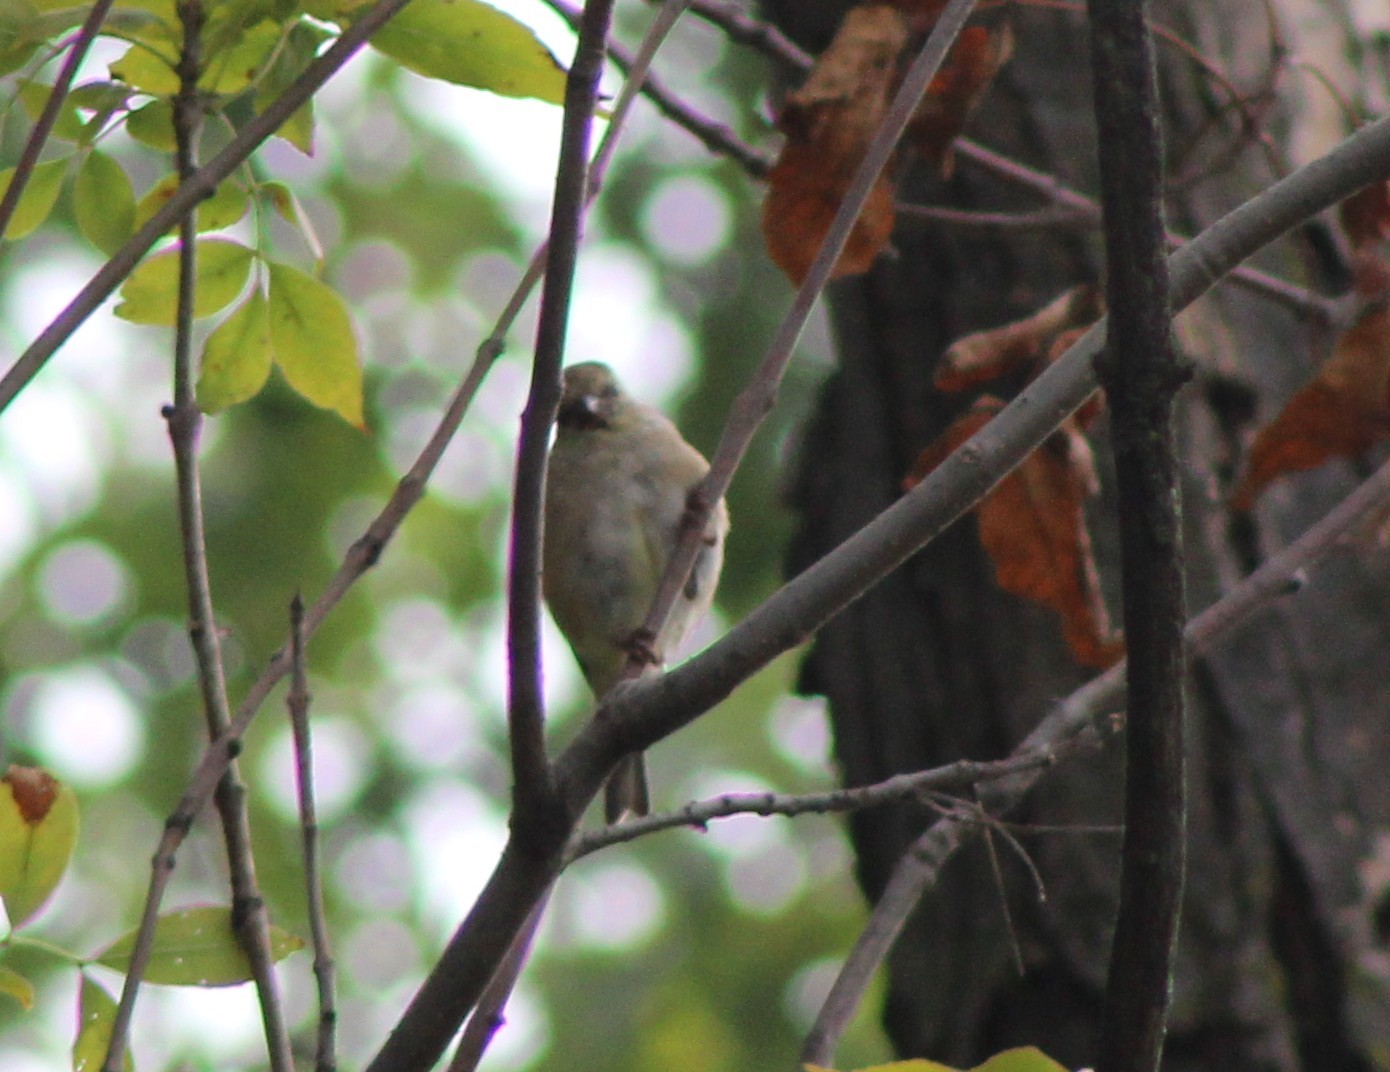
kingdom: Animalia
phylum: Chordata
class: Aves
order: Passeriformes
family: Fringillidae
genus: Spinus
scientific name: Spinus tristis
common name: American goldfinch
